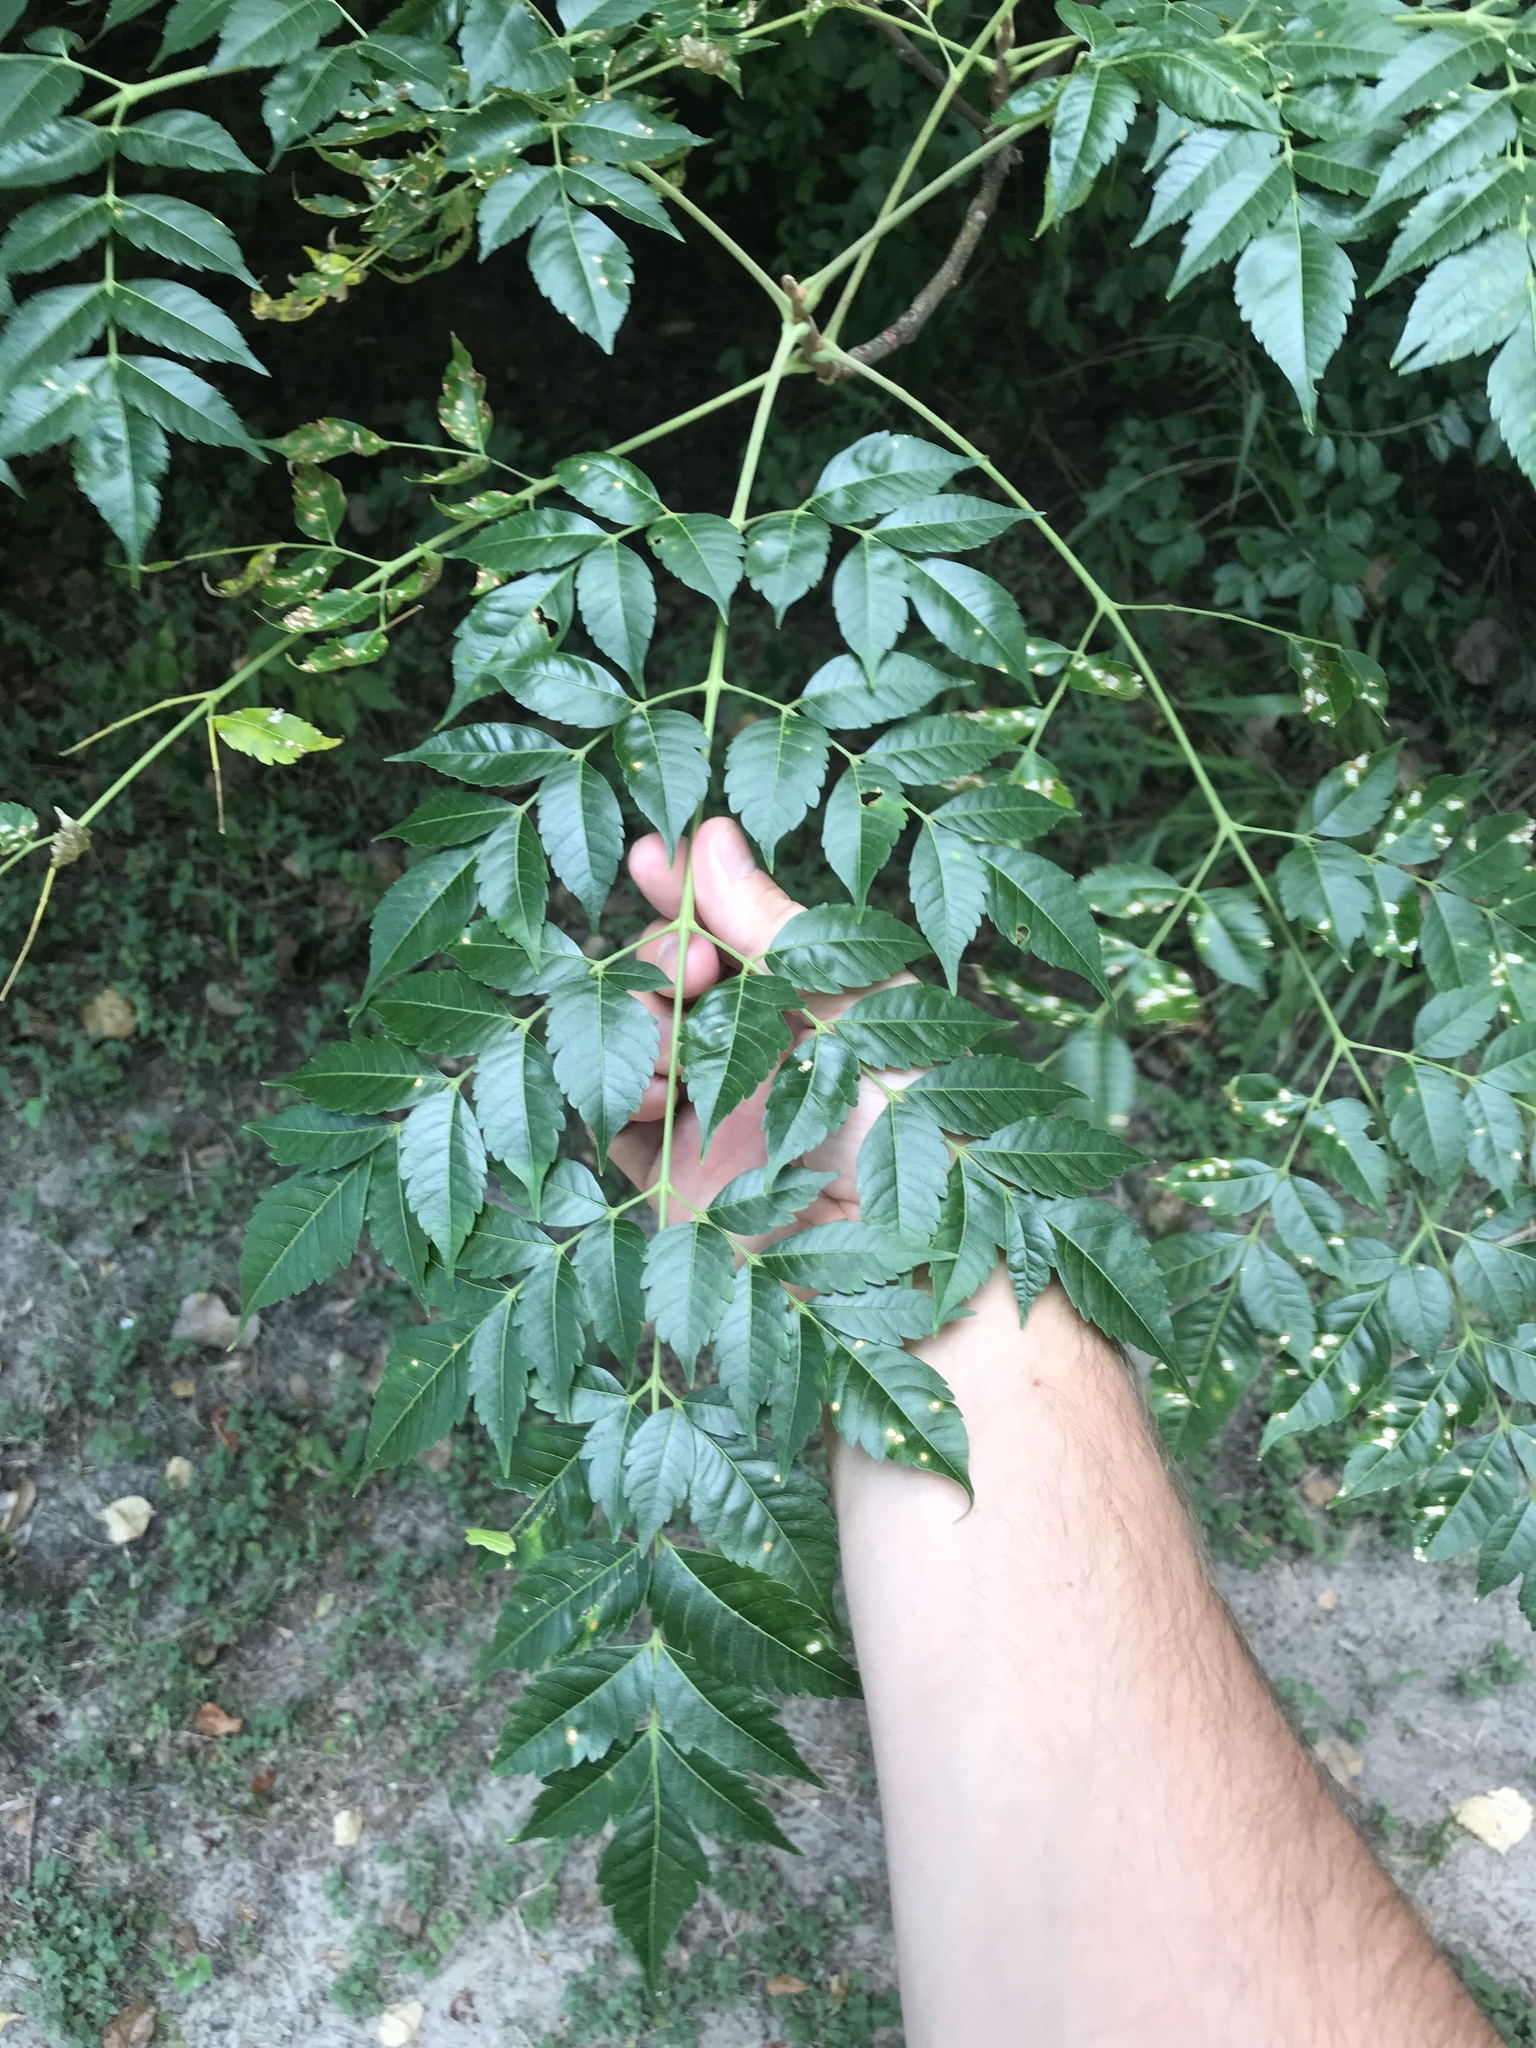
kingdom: Plantae
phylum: Tracheophyta
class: Magnoliopsida
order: Sapindales
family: Meliaceae
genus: Melia
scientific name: Melia azedarach
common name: Chinaberrytree
